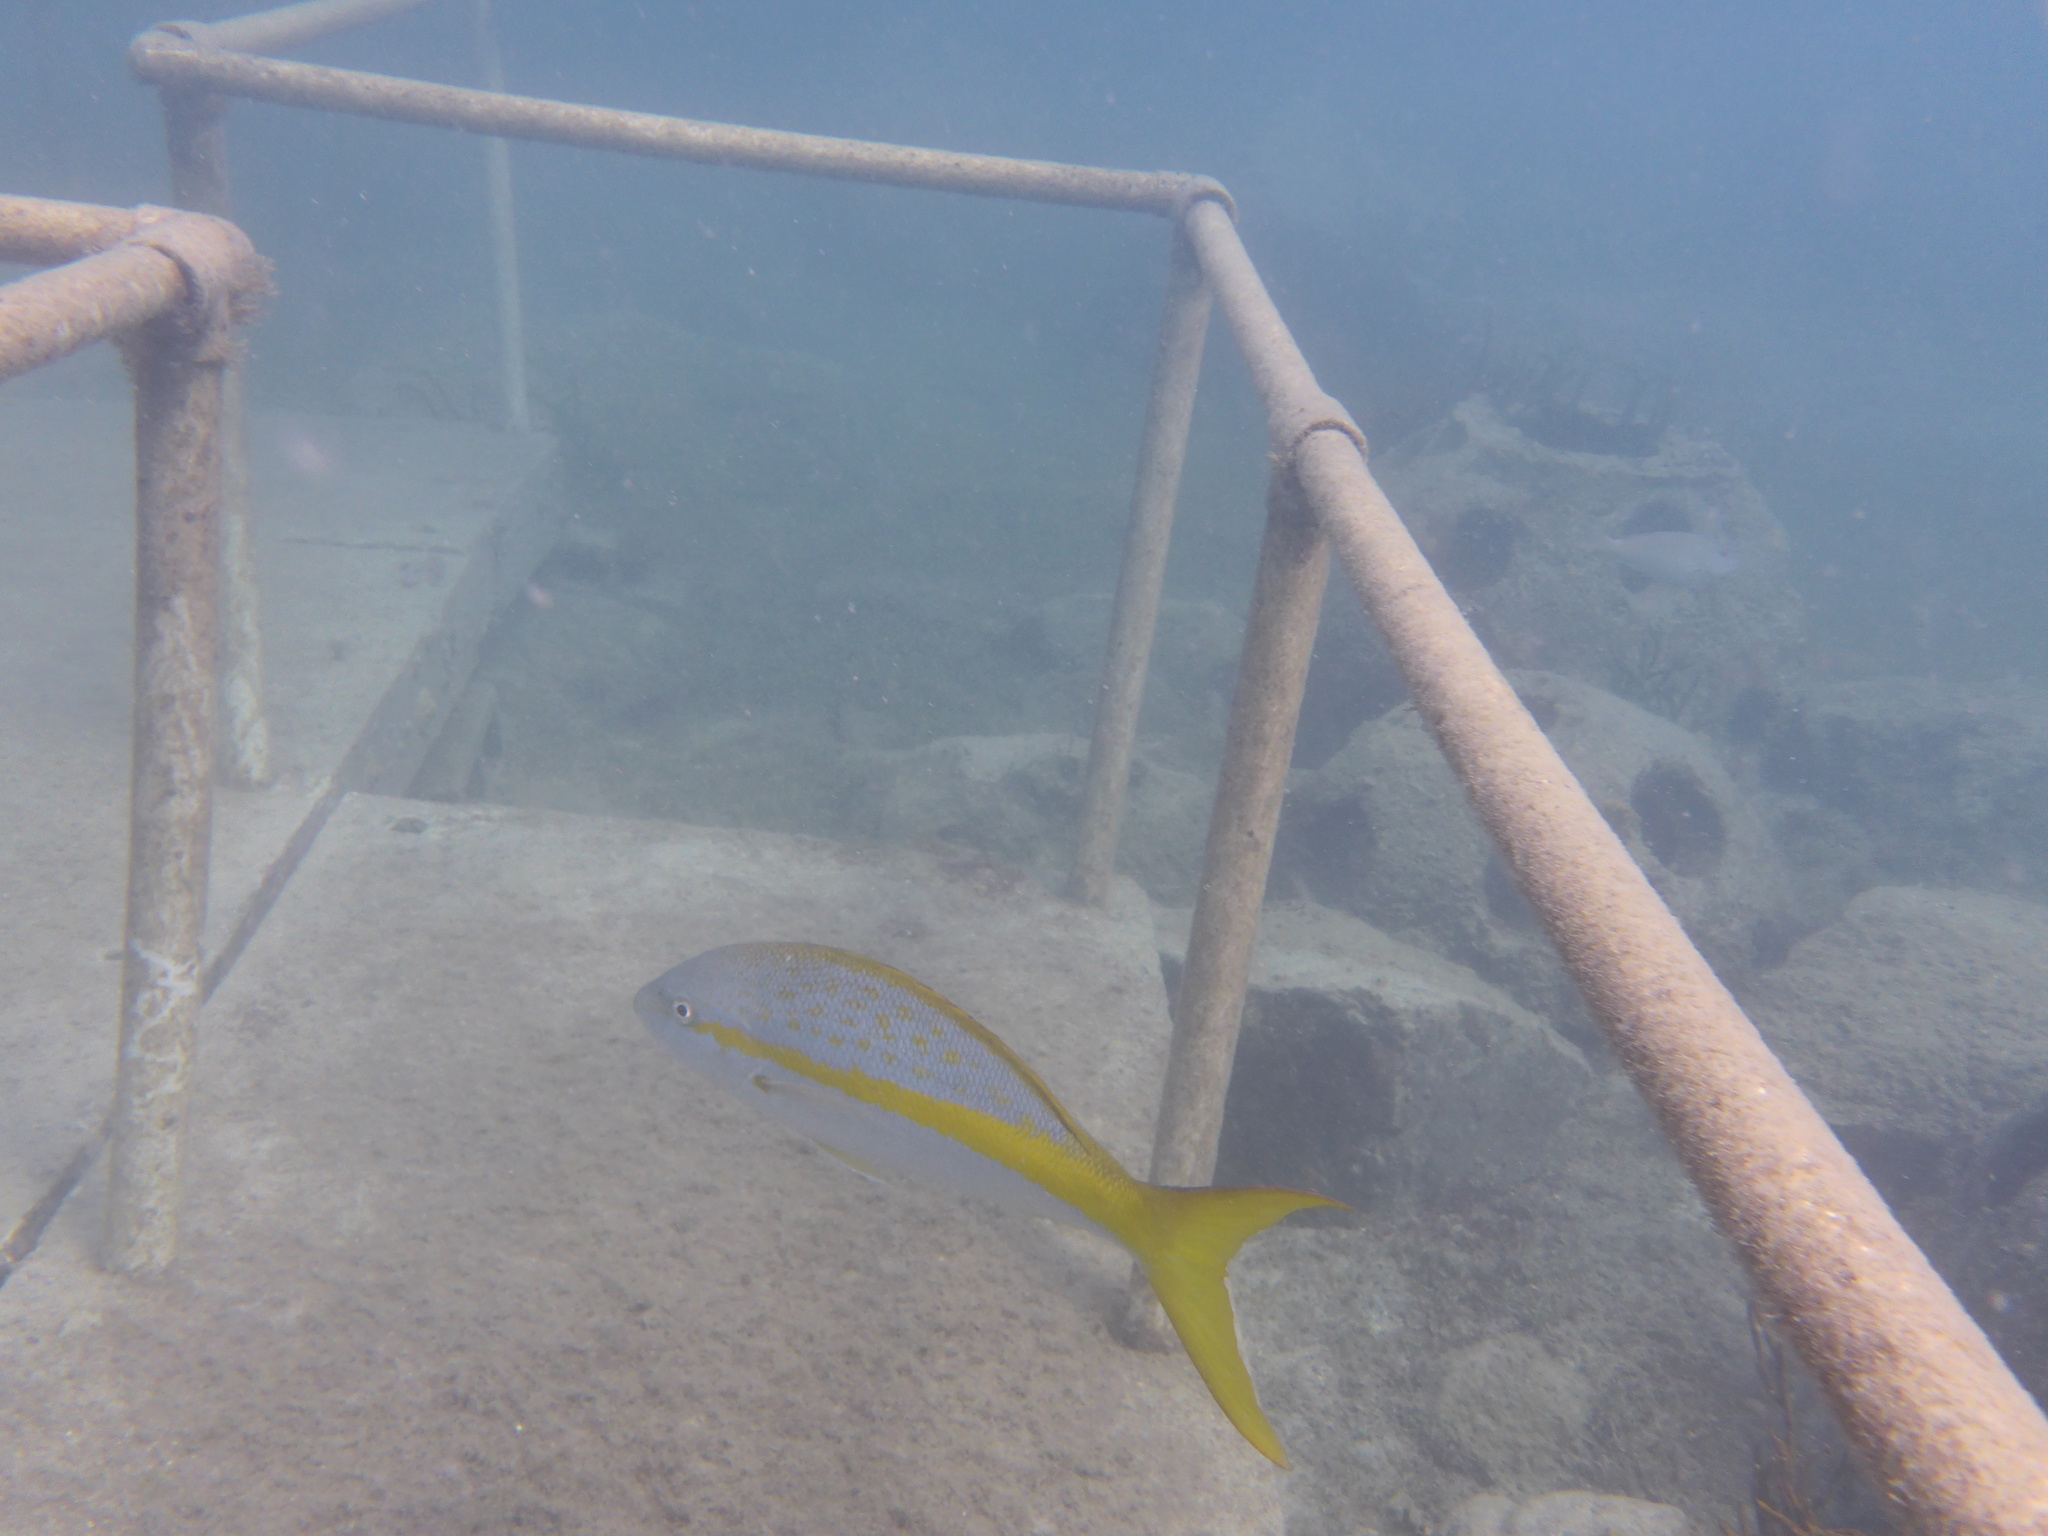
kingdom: Animalia
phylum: Chordata
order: Perciformes
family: Lutjanidae
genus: Ocyurus
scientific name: Ocyurus chrysurus
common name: Yellowtail snapper
